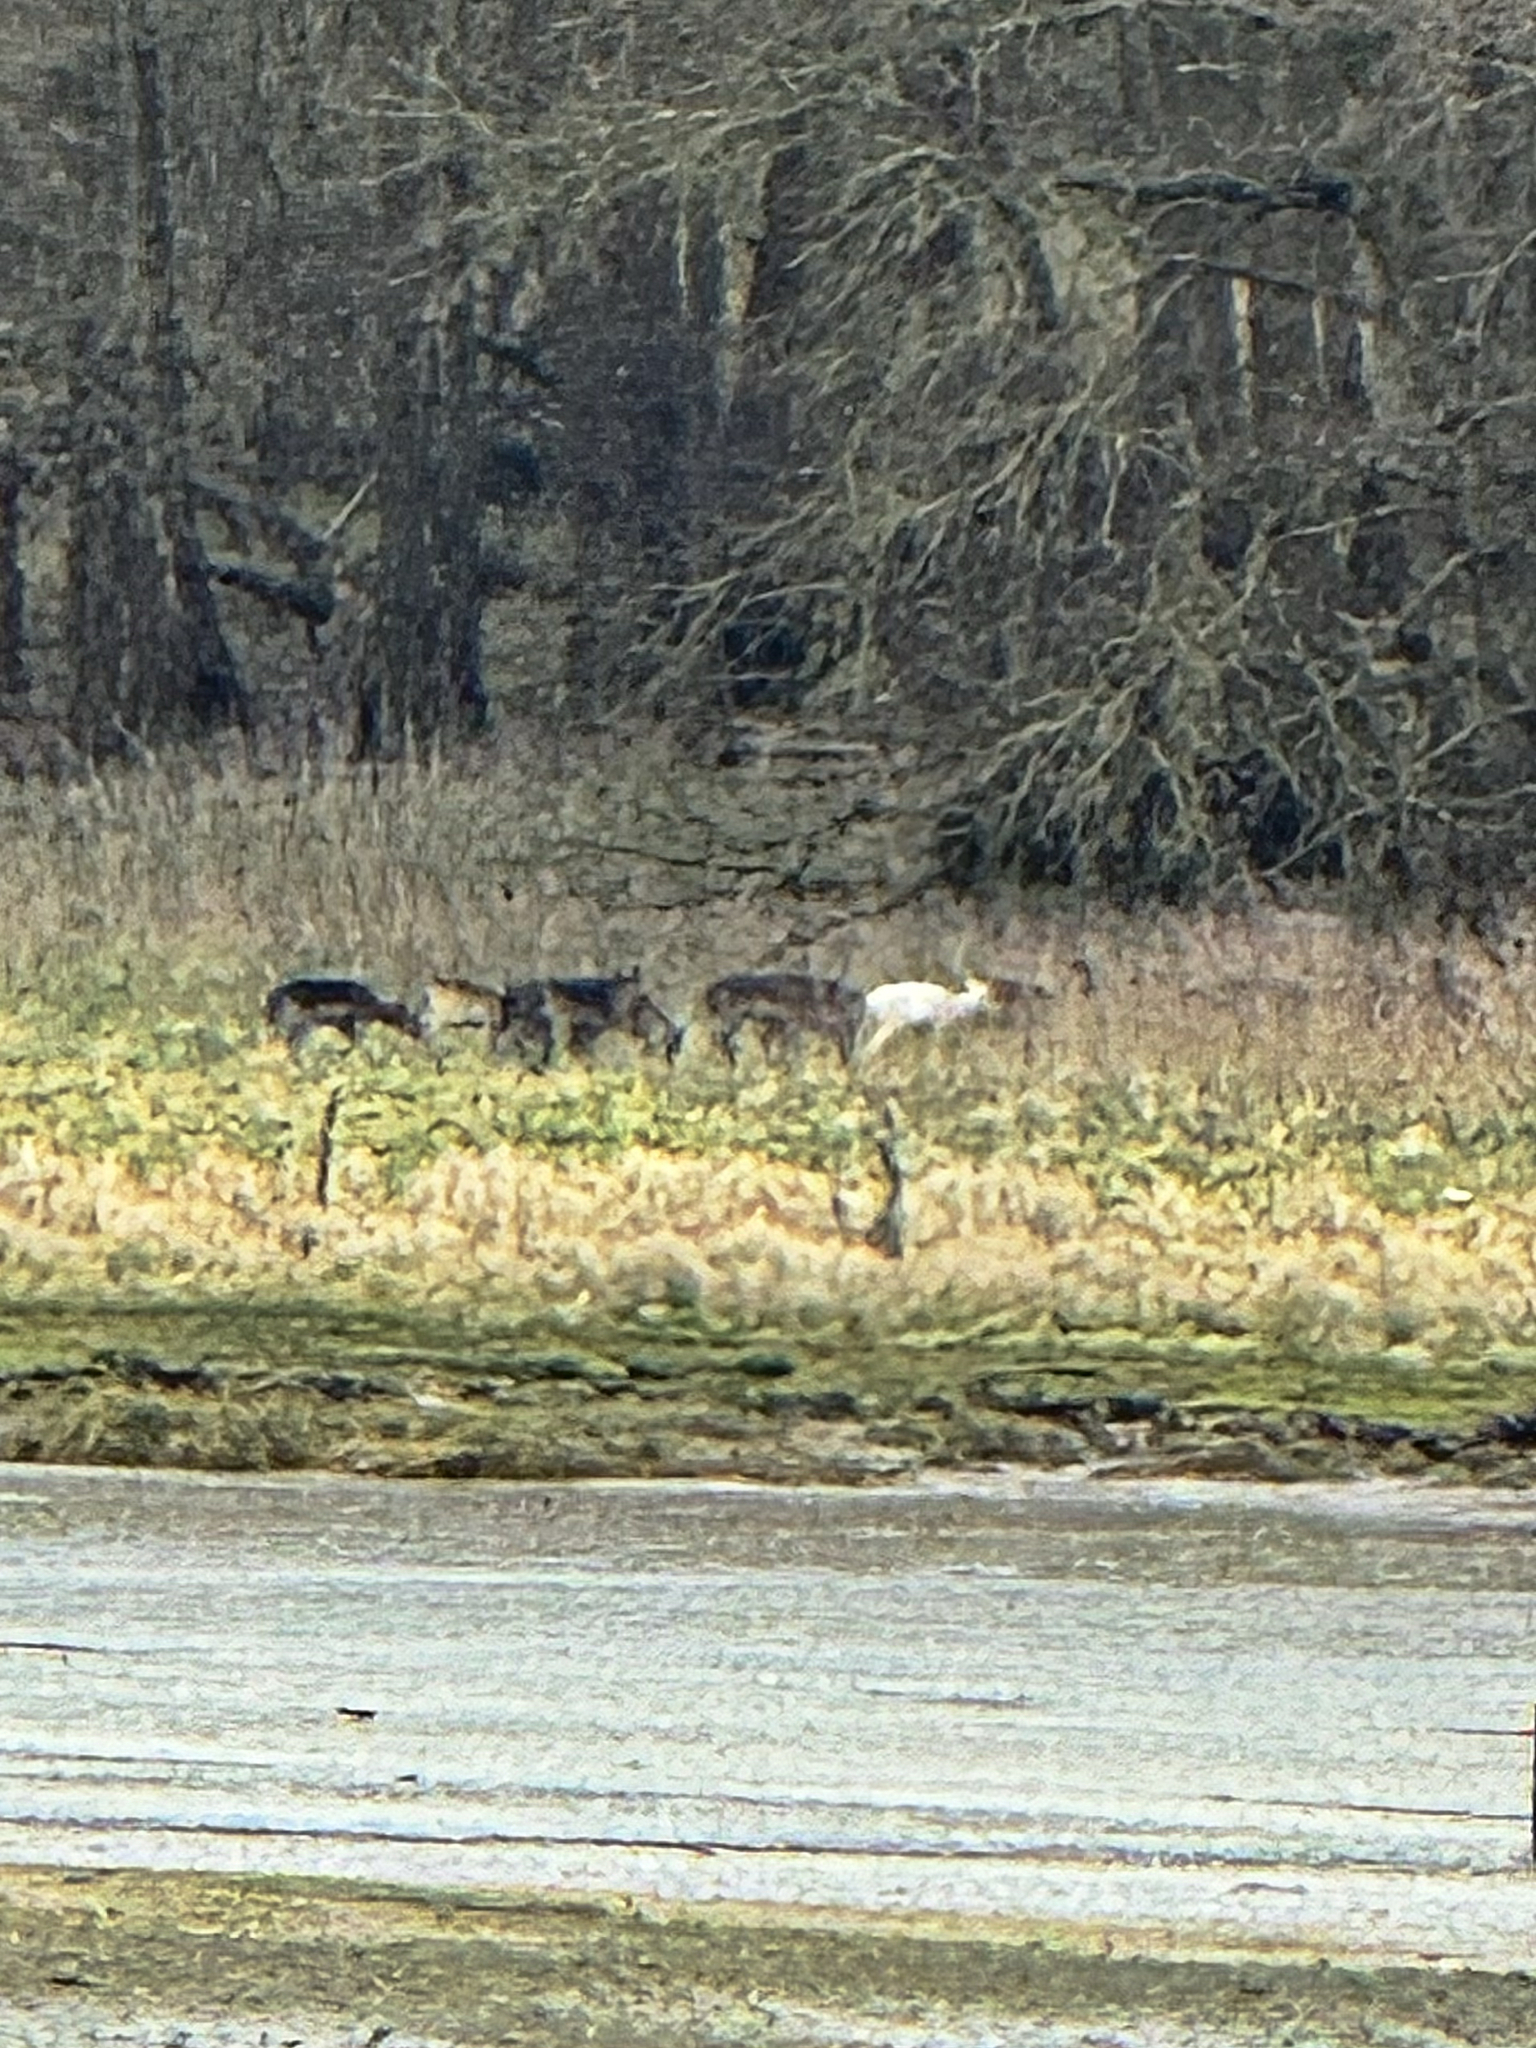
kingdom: Animalia
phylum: Chordata
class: Mammalia
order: Artiodactyla
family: Cervidae
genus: Dama
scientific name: Dama dama
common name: Fallow deer
